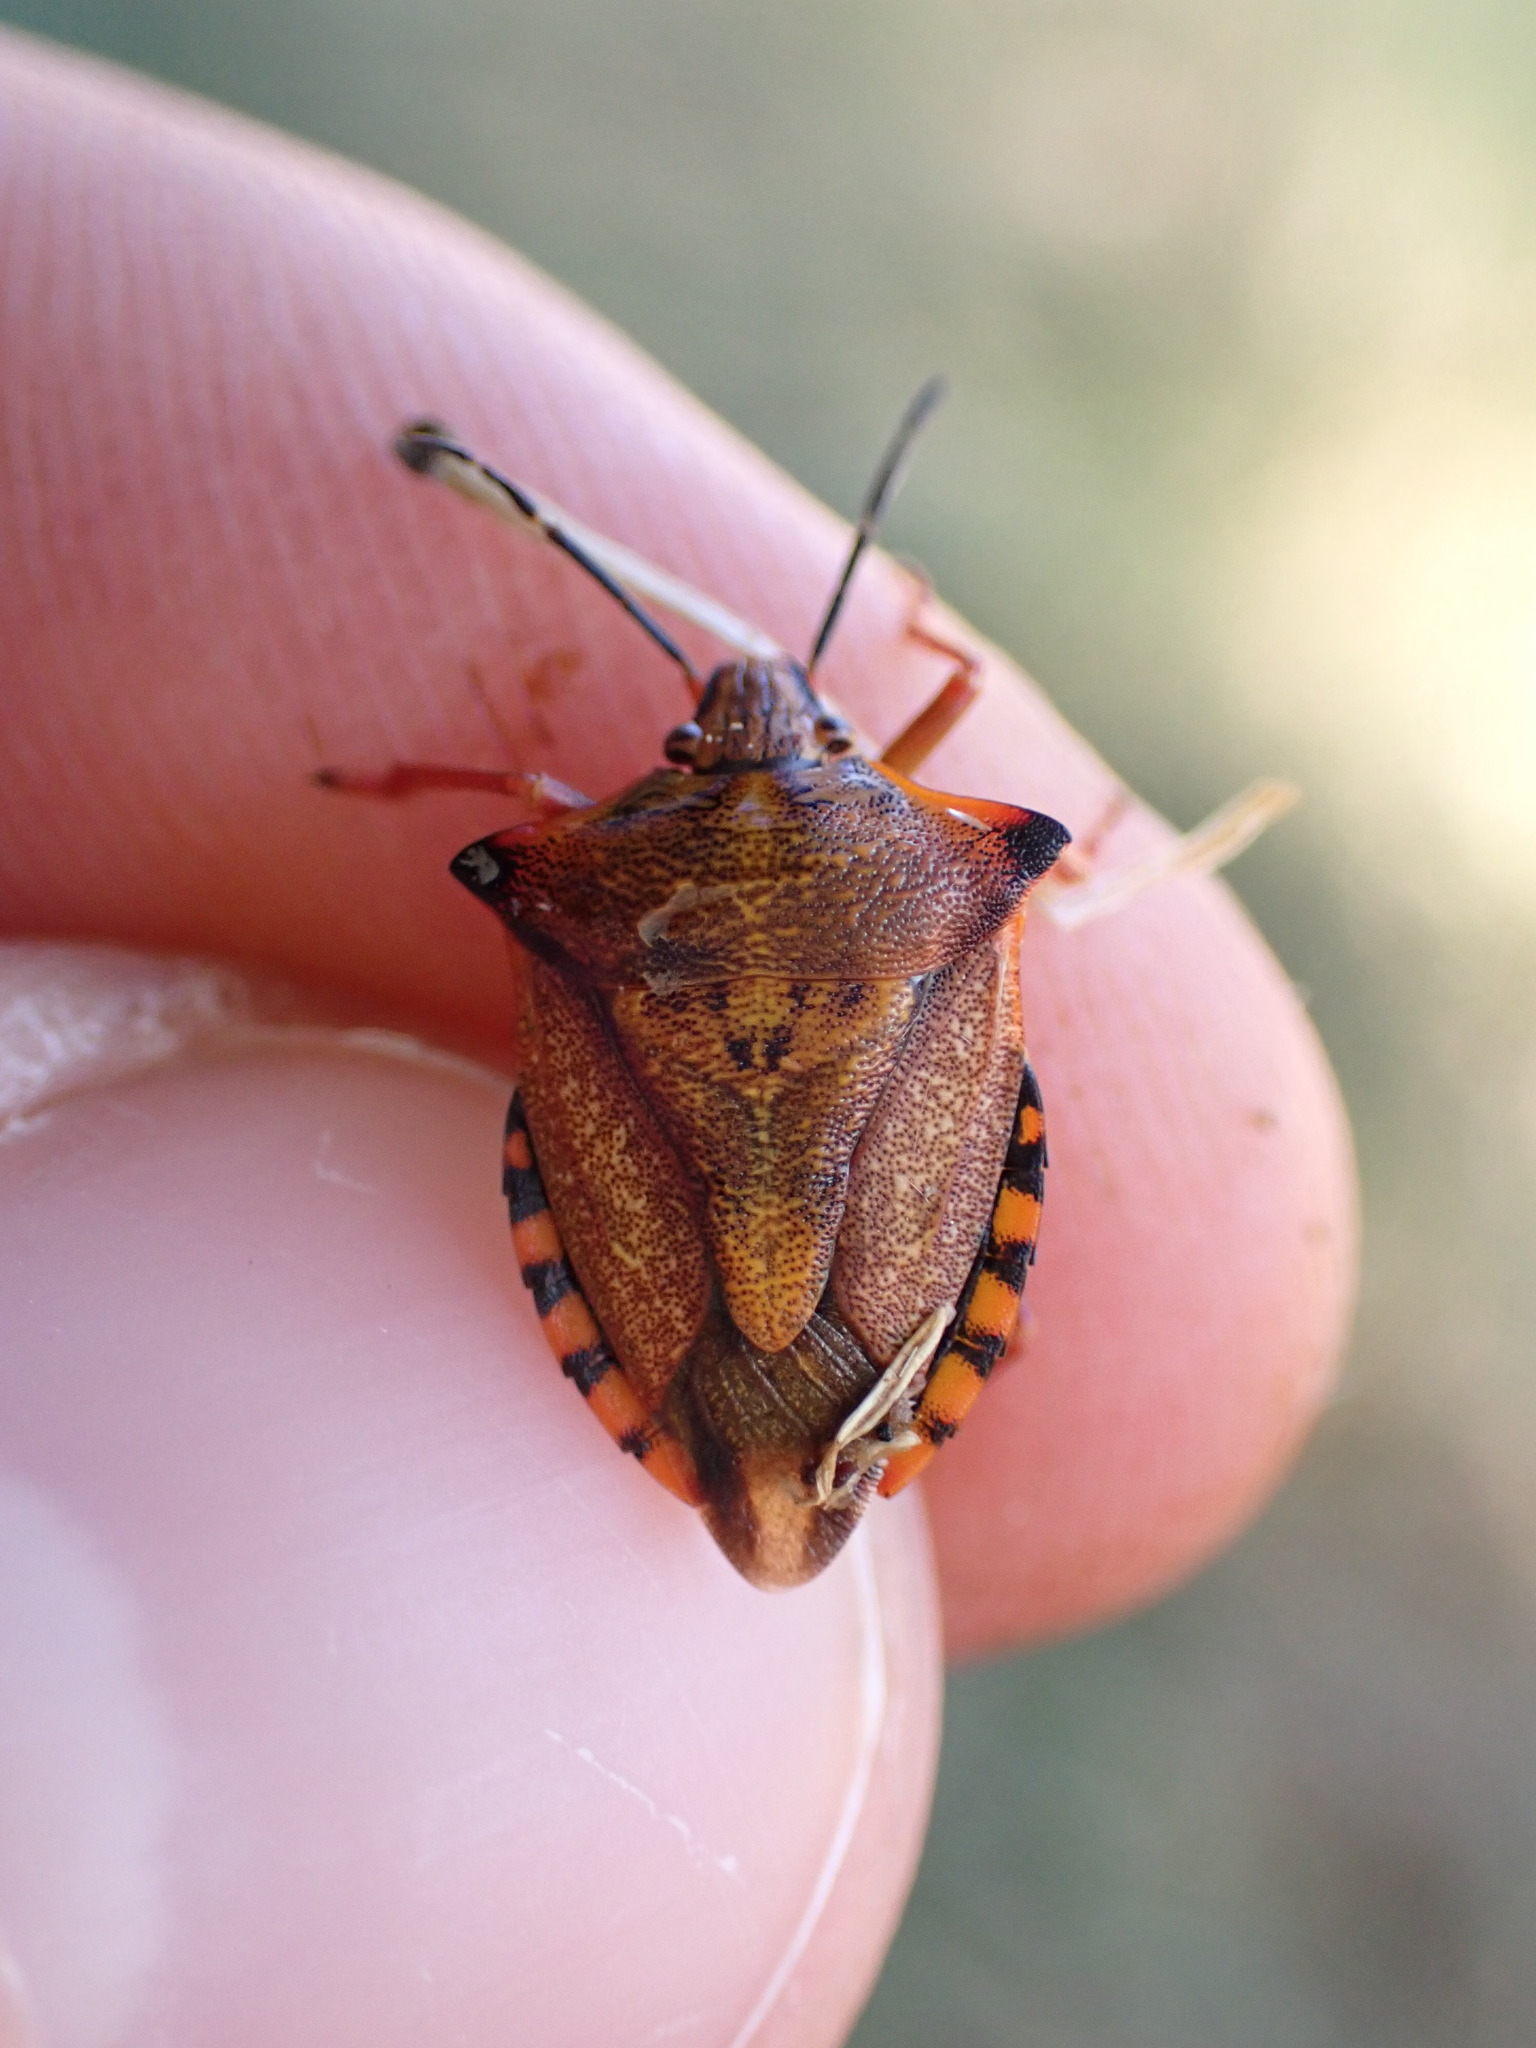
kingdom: Animalia
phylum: Arthropoda
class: Insecta
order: Hemiptera
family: Pentatomidae
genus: Carpocoris
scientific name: Carpocoris mediterraneus
